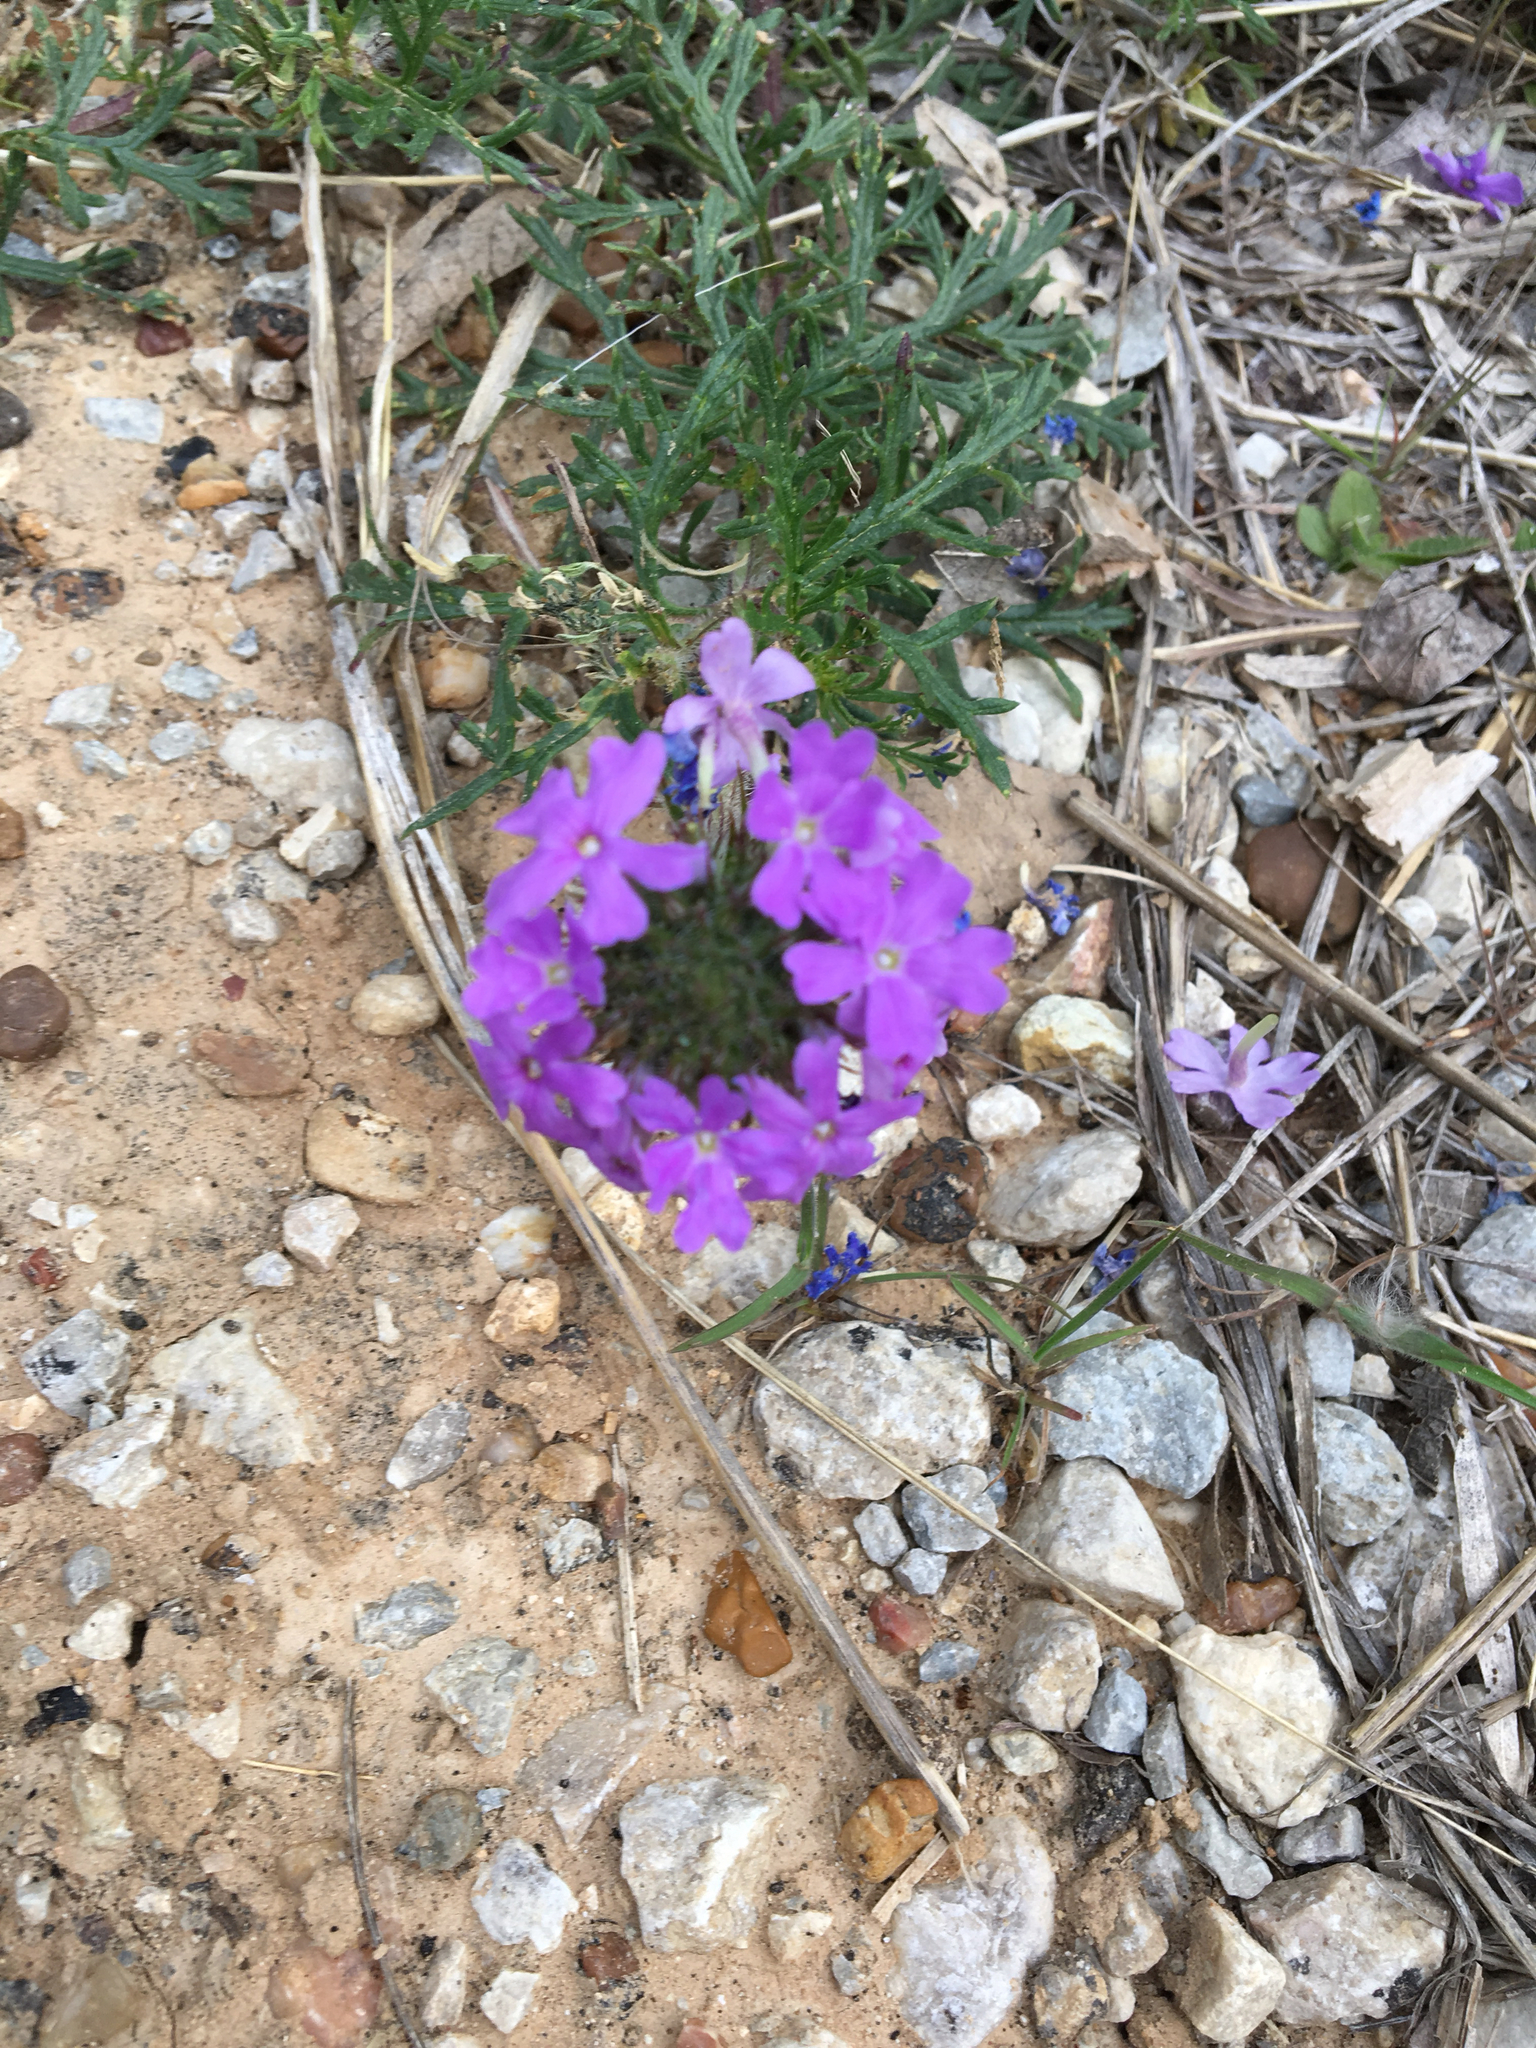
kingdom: Plantae
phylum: Tracheophyta
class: Magnoliopsida
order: Lamiales
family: Verbenaceae
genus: Verbena
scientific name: Verbena bipinnatifida
